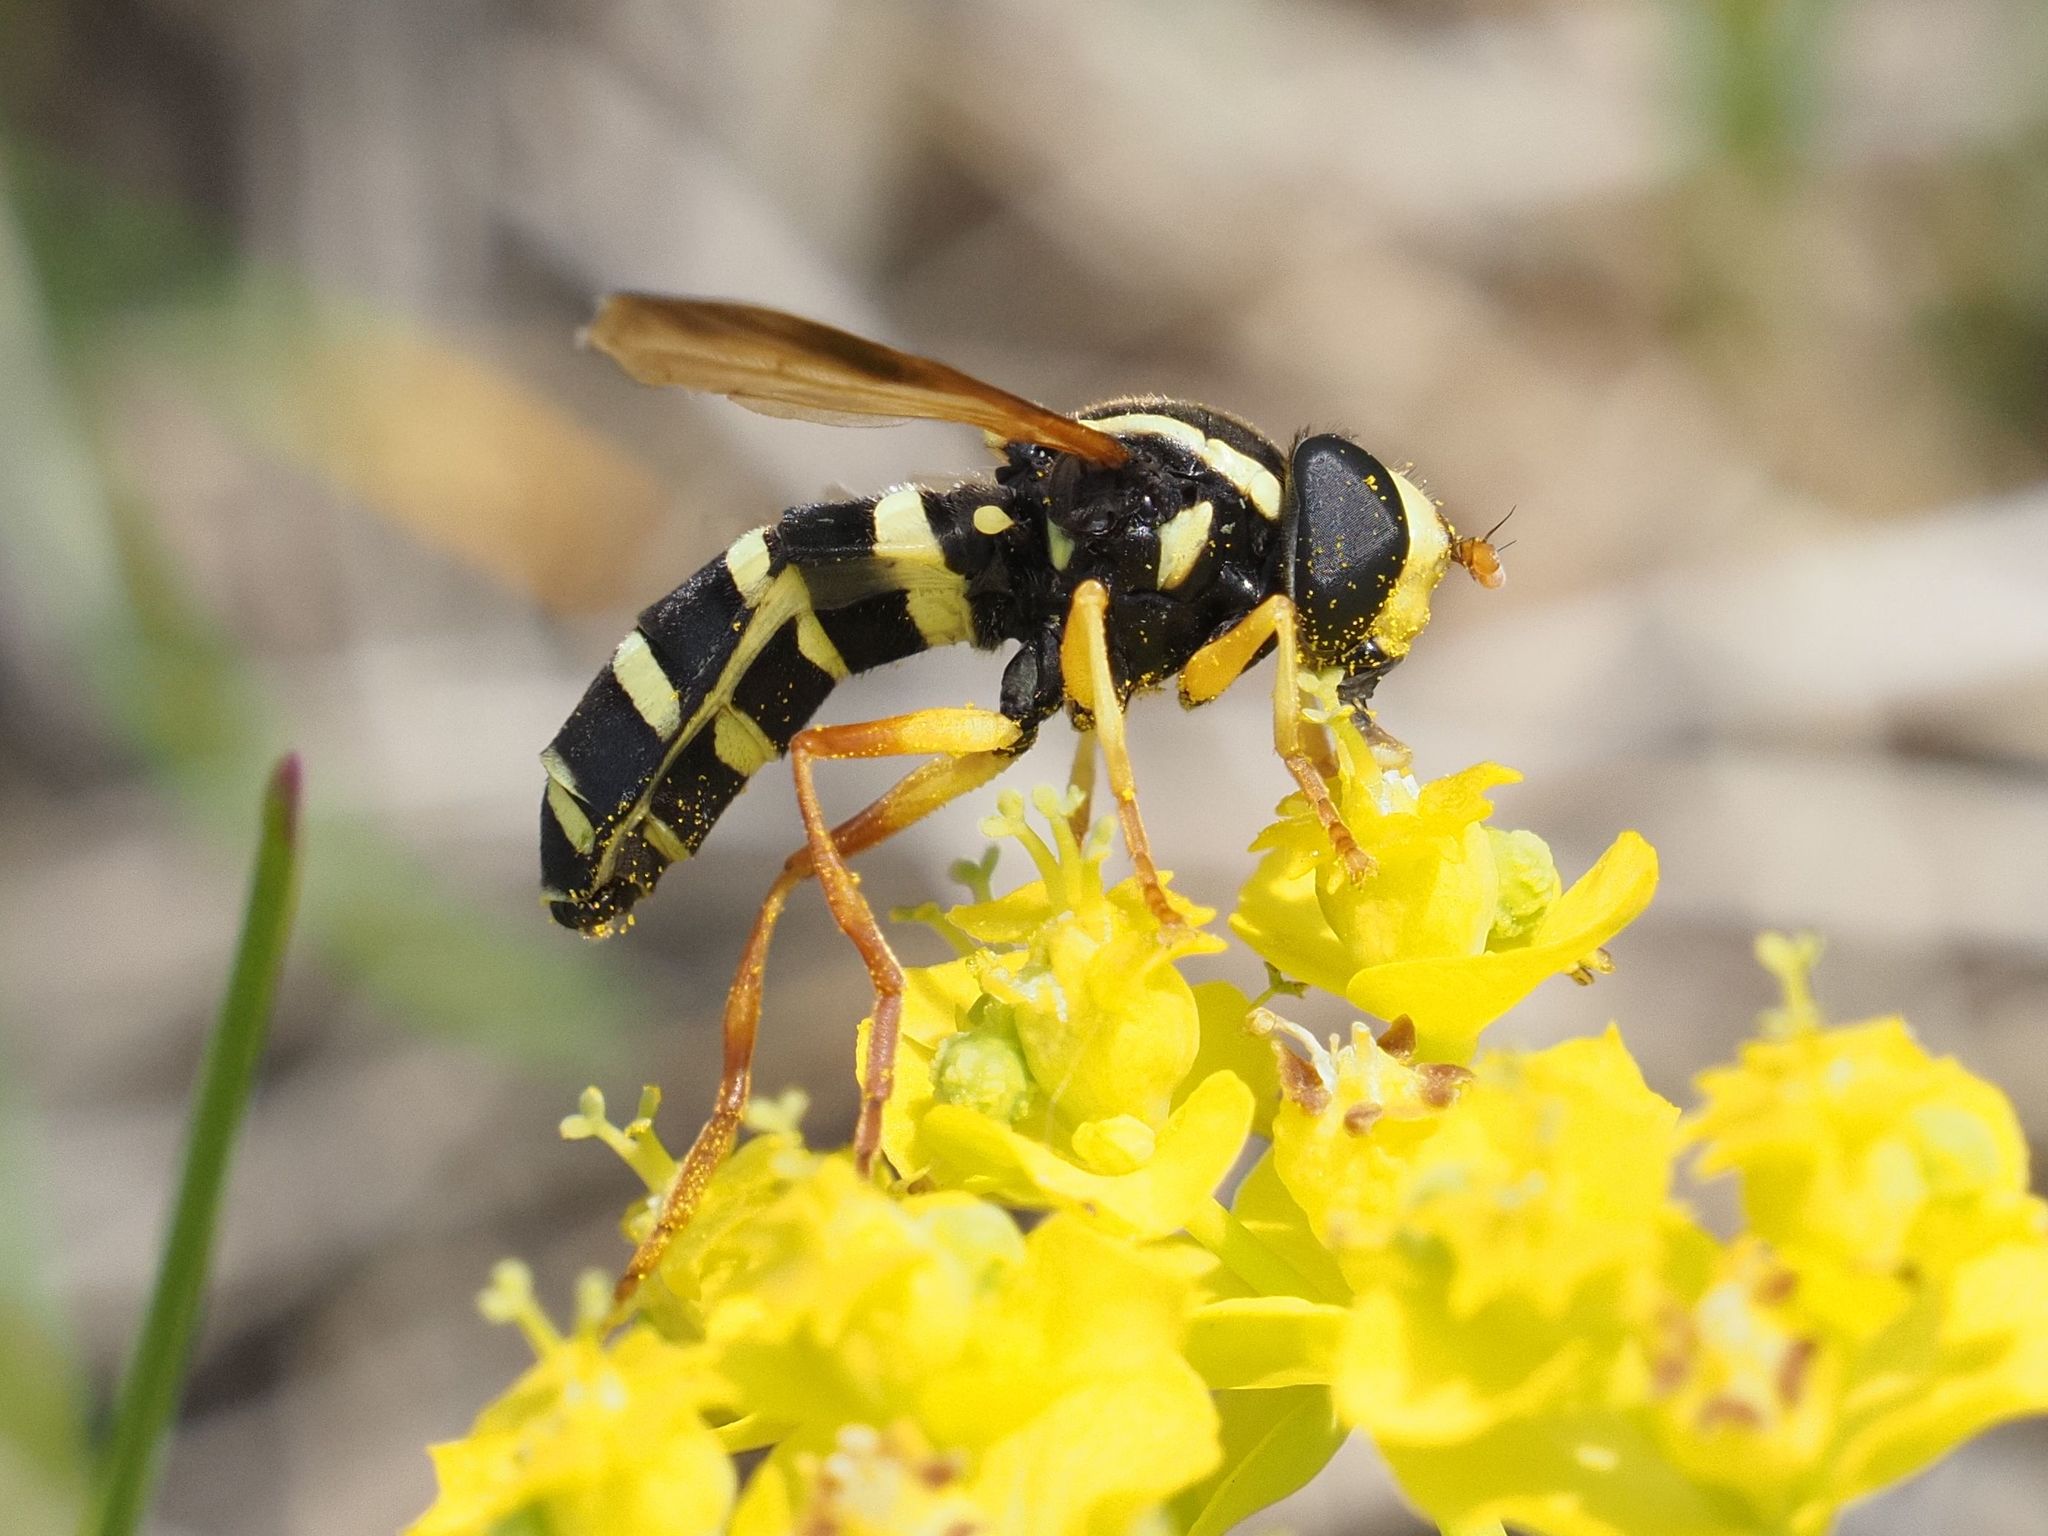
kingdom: Animalia
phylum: Arthropoda
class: Insecta
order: Diptera
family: Syrphidae
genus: Philhelius
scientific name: Philhelius citrofasciata
